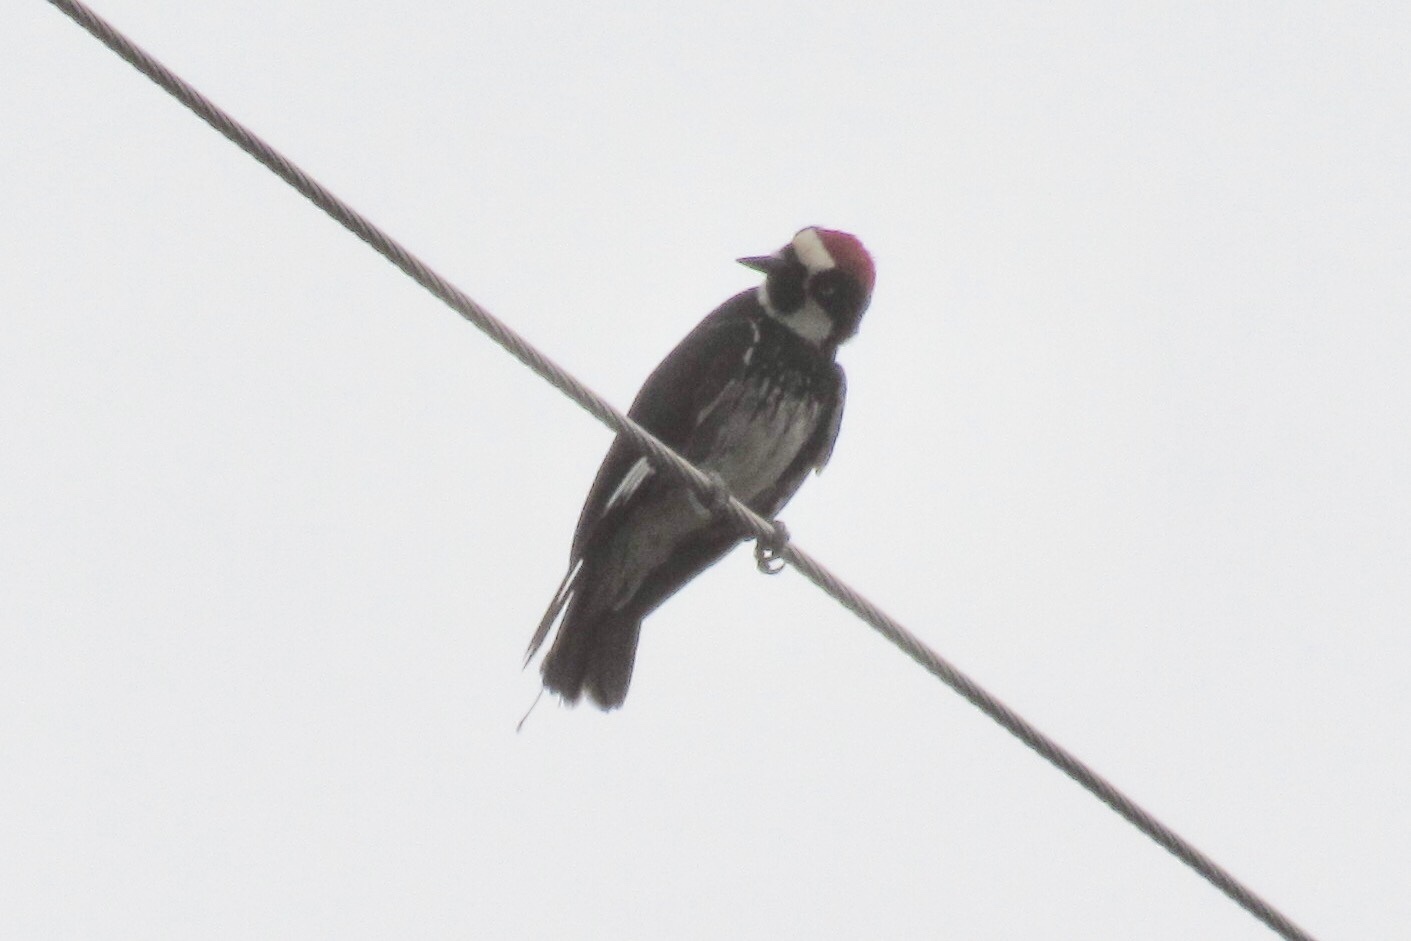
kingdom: Animalia
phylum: Chordata
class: Aves
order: Piciformes
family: Picidae
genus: Melanerpes
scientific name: Melanerpes formicivorus
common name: Acorn woodpecker
